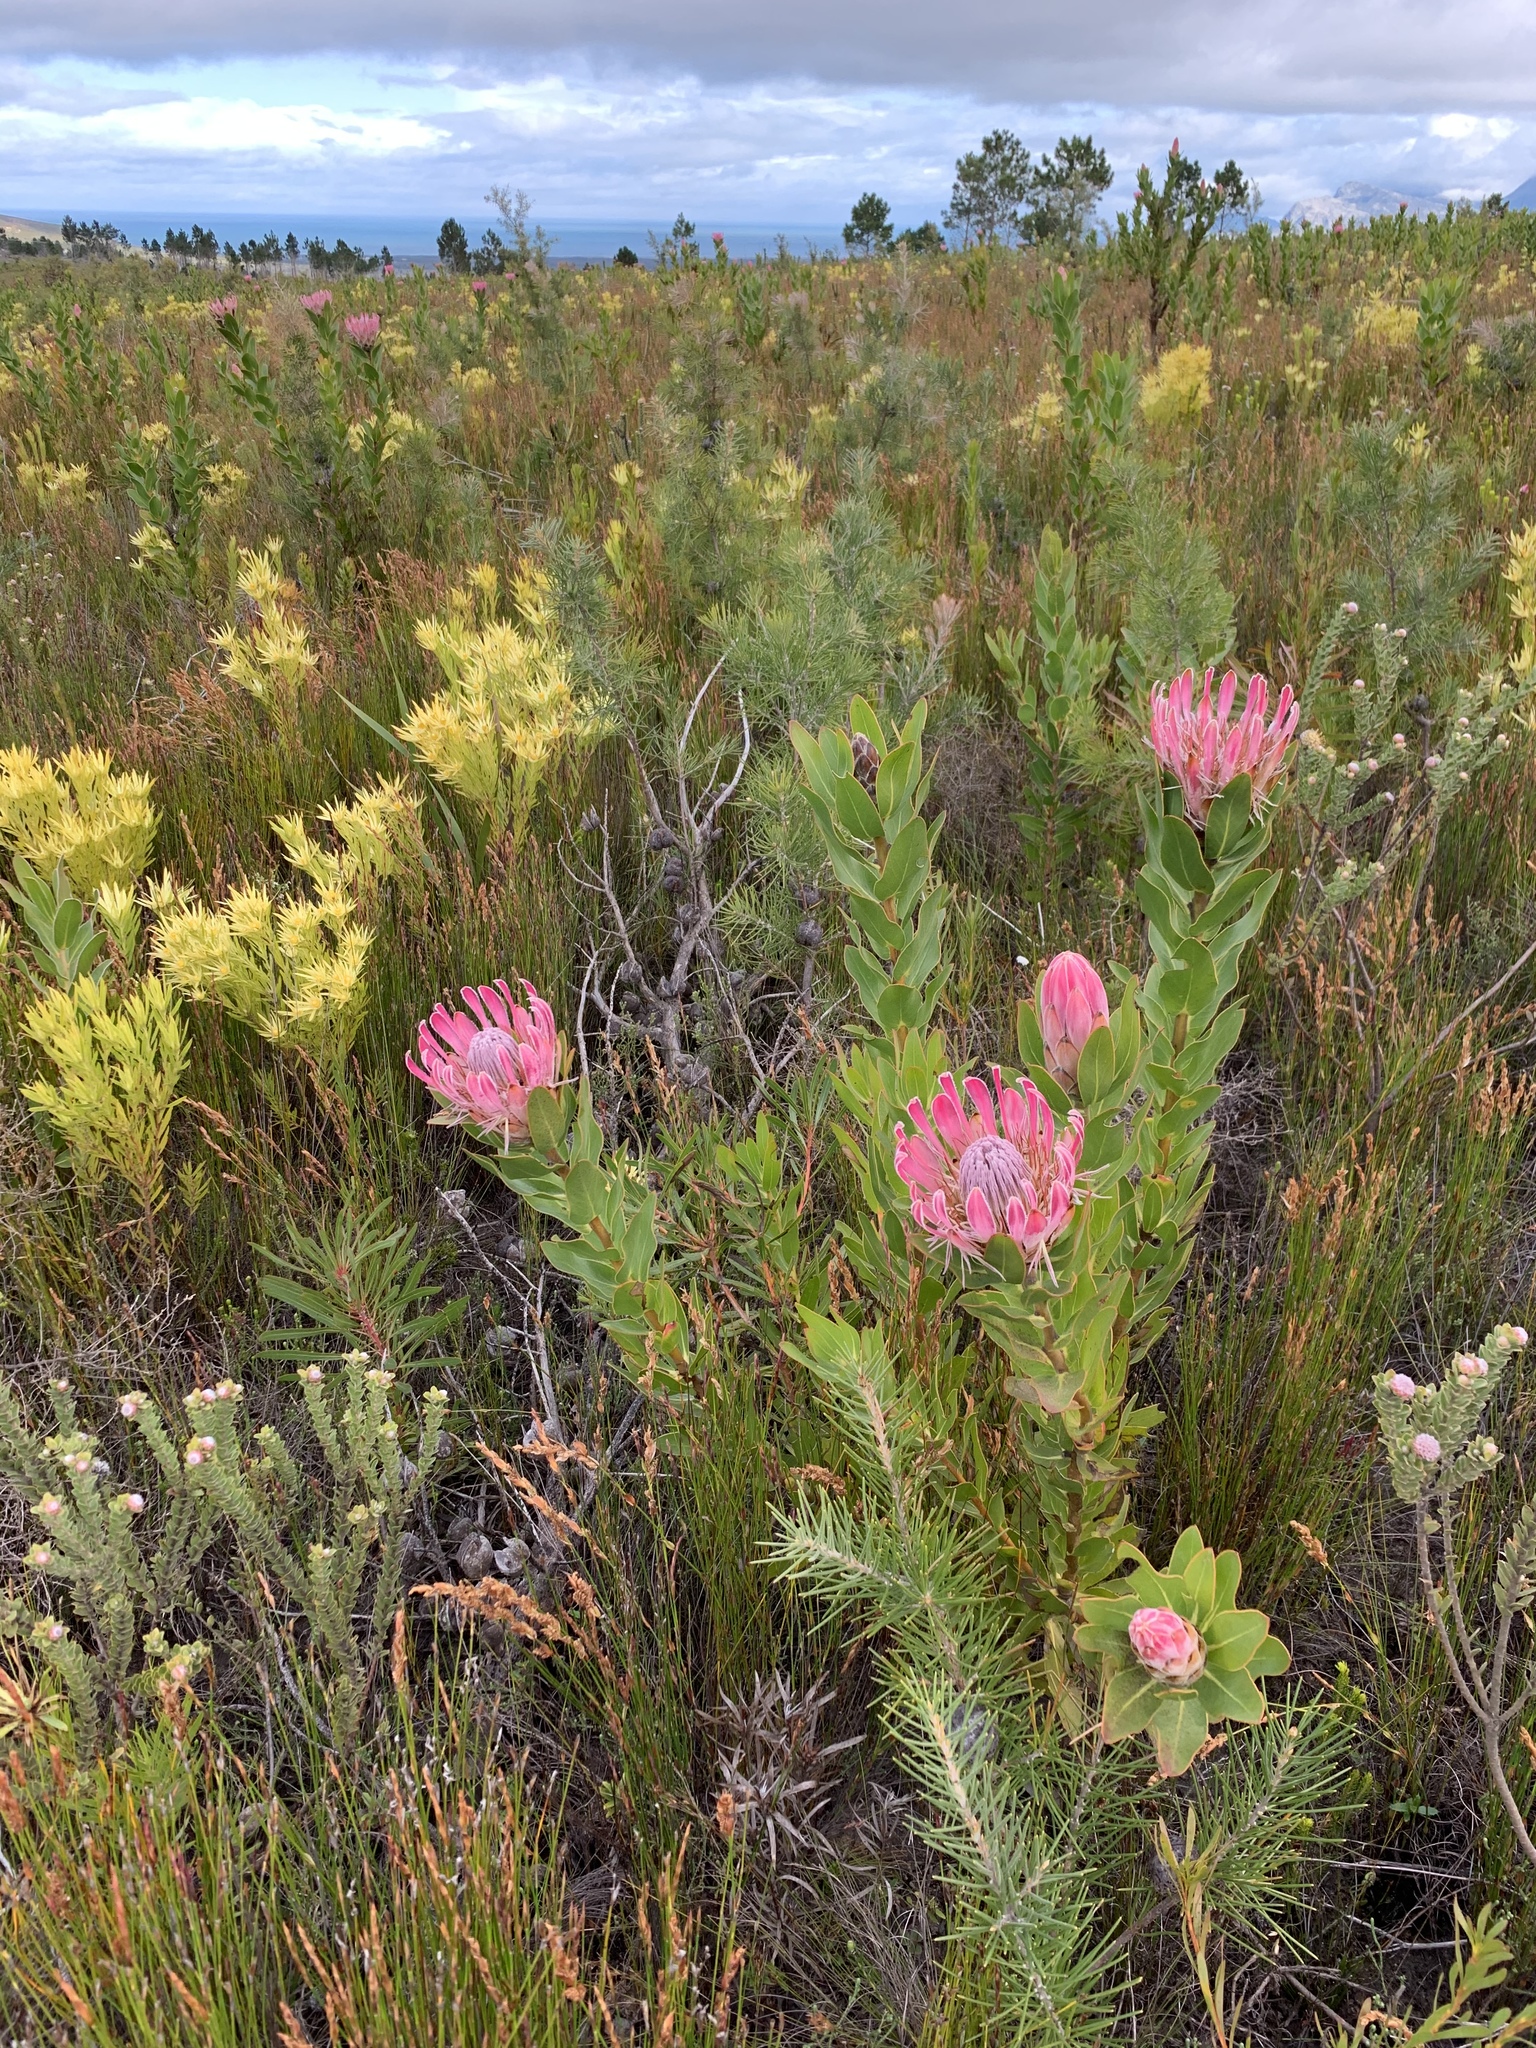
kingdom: Plantae
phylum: Tracheophyta
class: Magnoliopsida
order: Proteales
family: Proteaceae
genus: Protea
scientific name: Protea compacta
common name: Bot river protea
